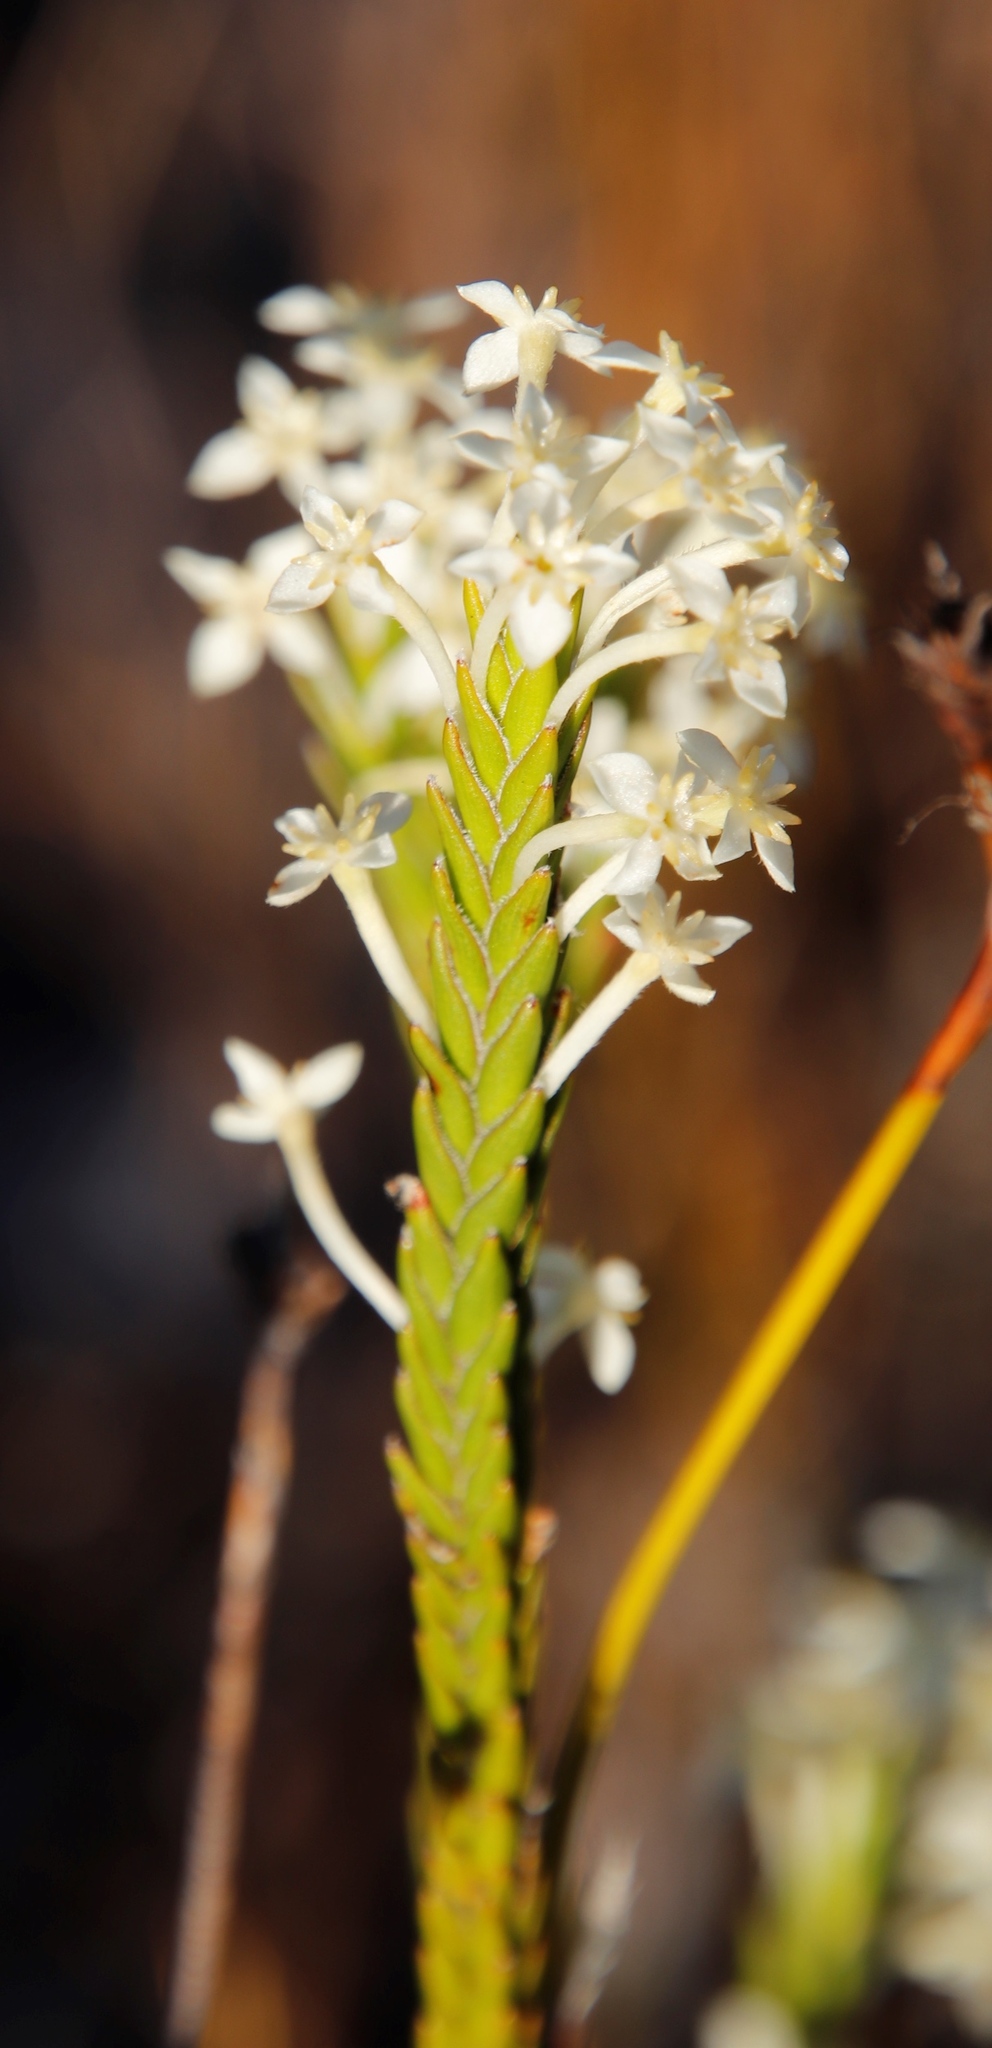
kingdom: Plantae
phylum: Tracheophyta
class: Magnoliopsida
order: Malvales
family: Thymelaeaceae
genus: Struthiola
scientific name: Struthiola ciliata
